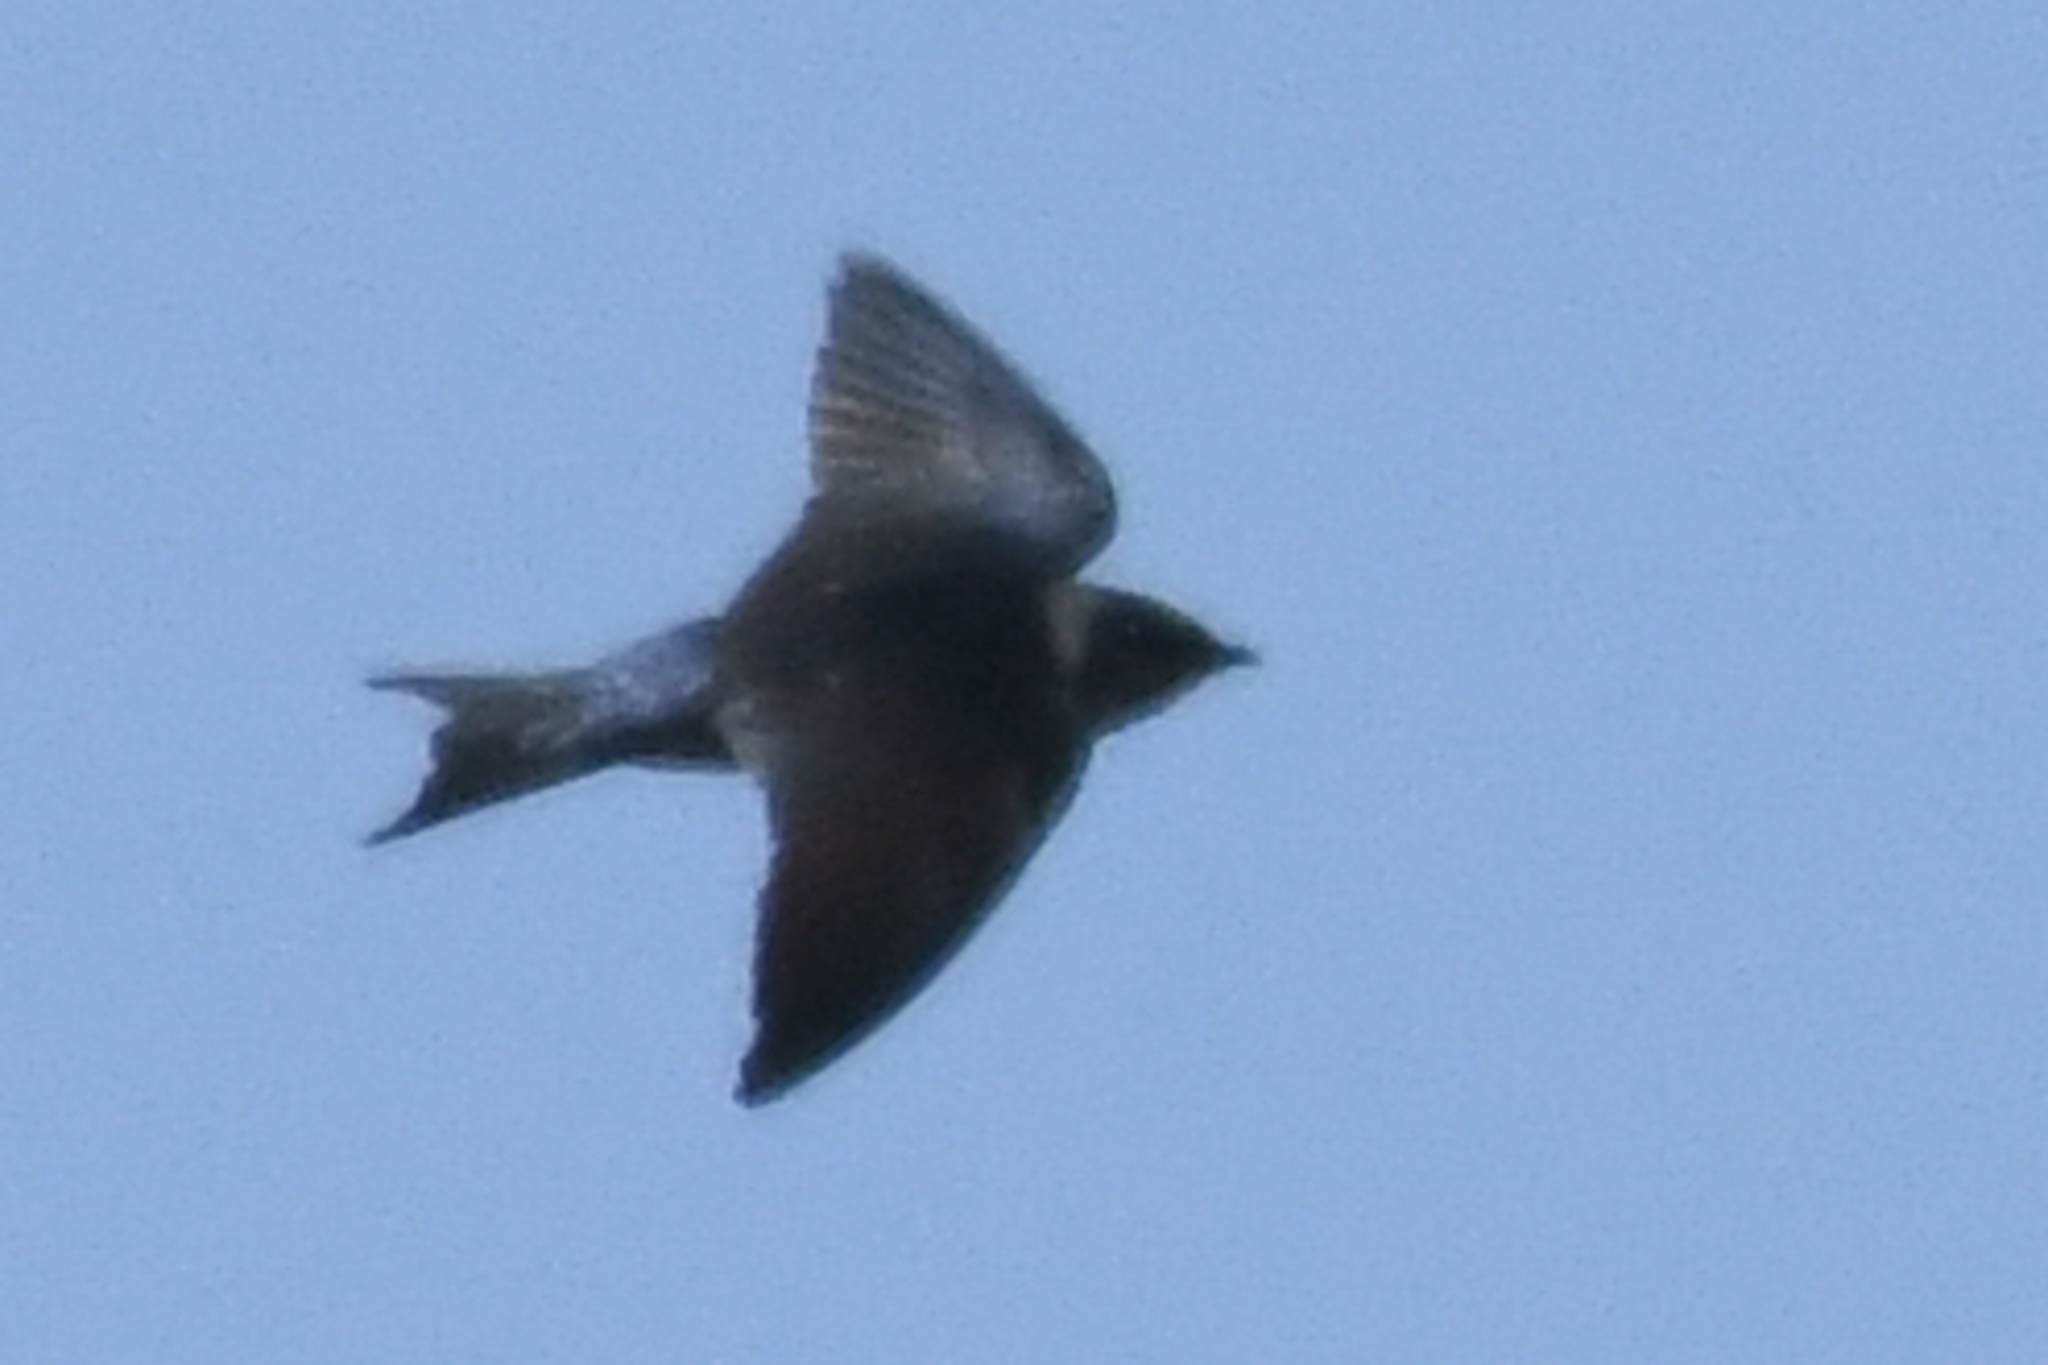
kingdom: Animalia
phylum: Chordata
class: Aves
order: Passeriformes
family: Hirundinidae
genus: Progne
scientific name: Progne subis
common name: Purple martin
